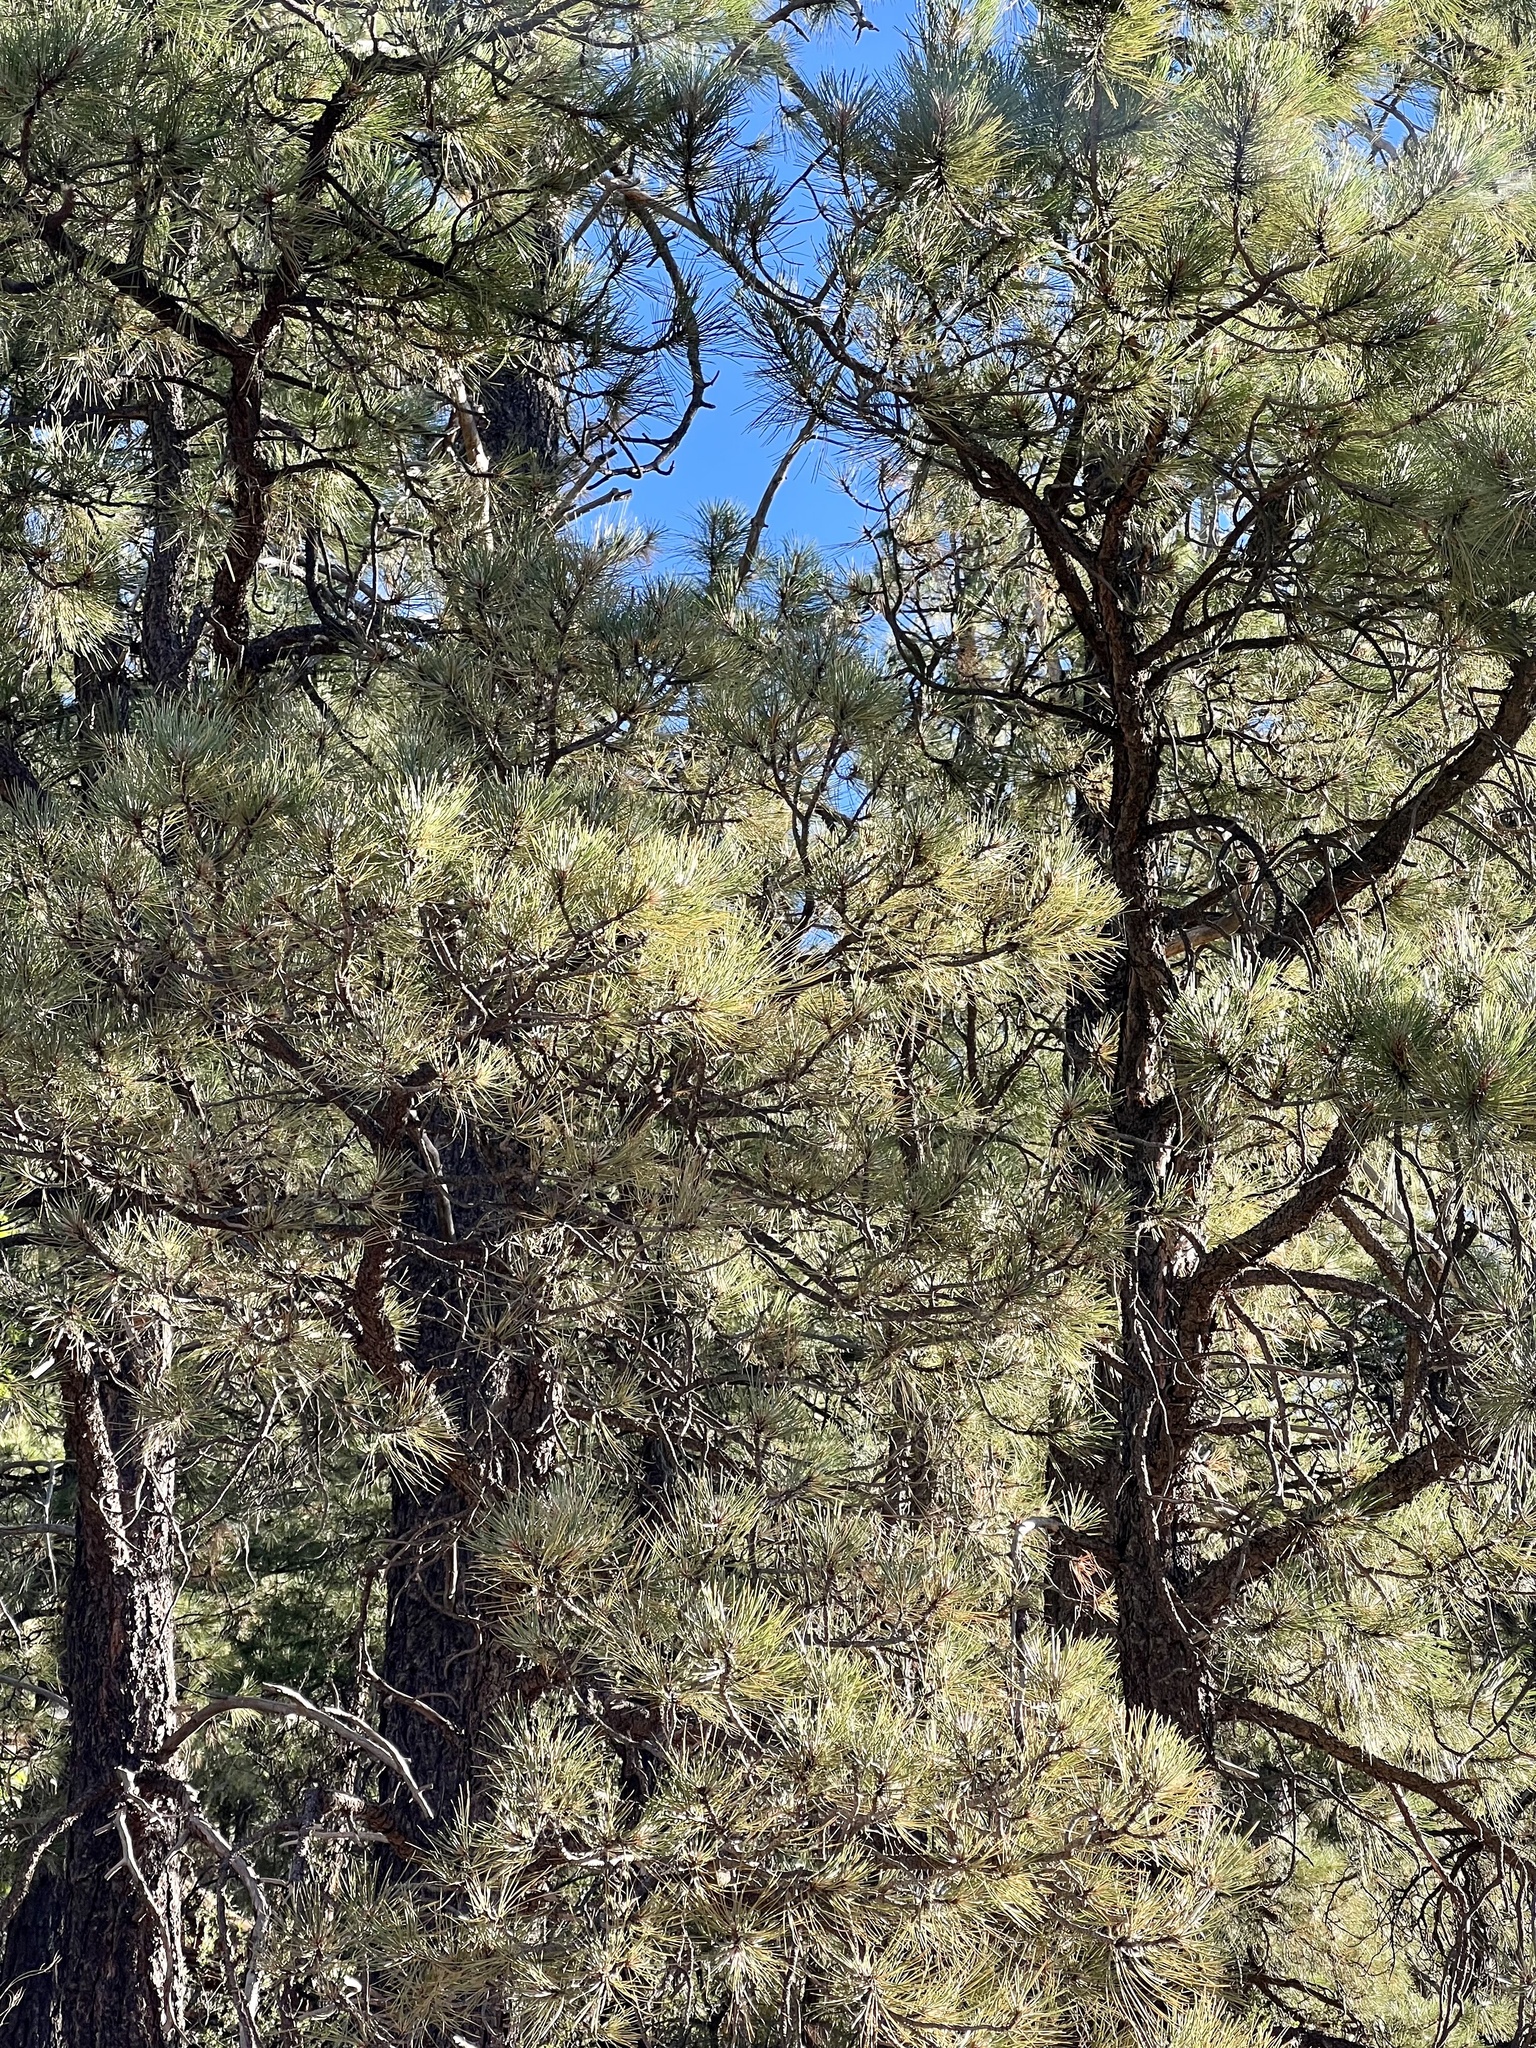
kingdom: Plantae
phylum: Tracheophyta
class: Pinopsida
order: Pinales
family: Pinaceae
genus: Pinus
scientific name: Pinus ponderosa
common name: Western yellow-pine
